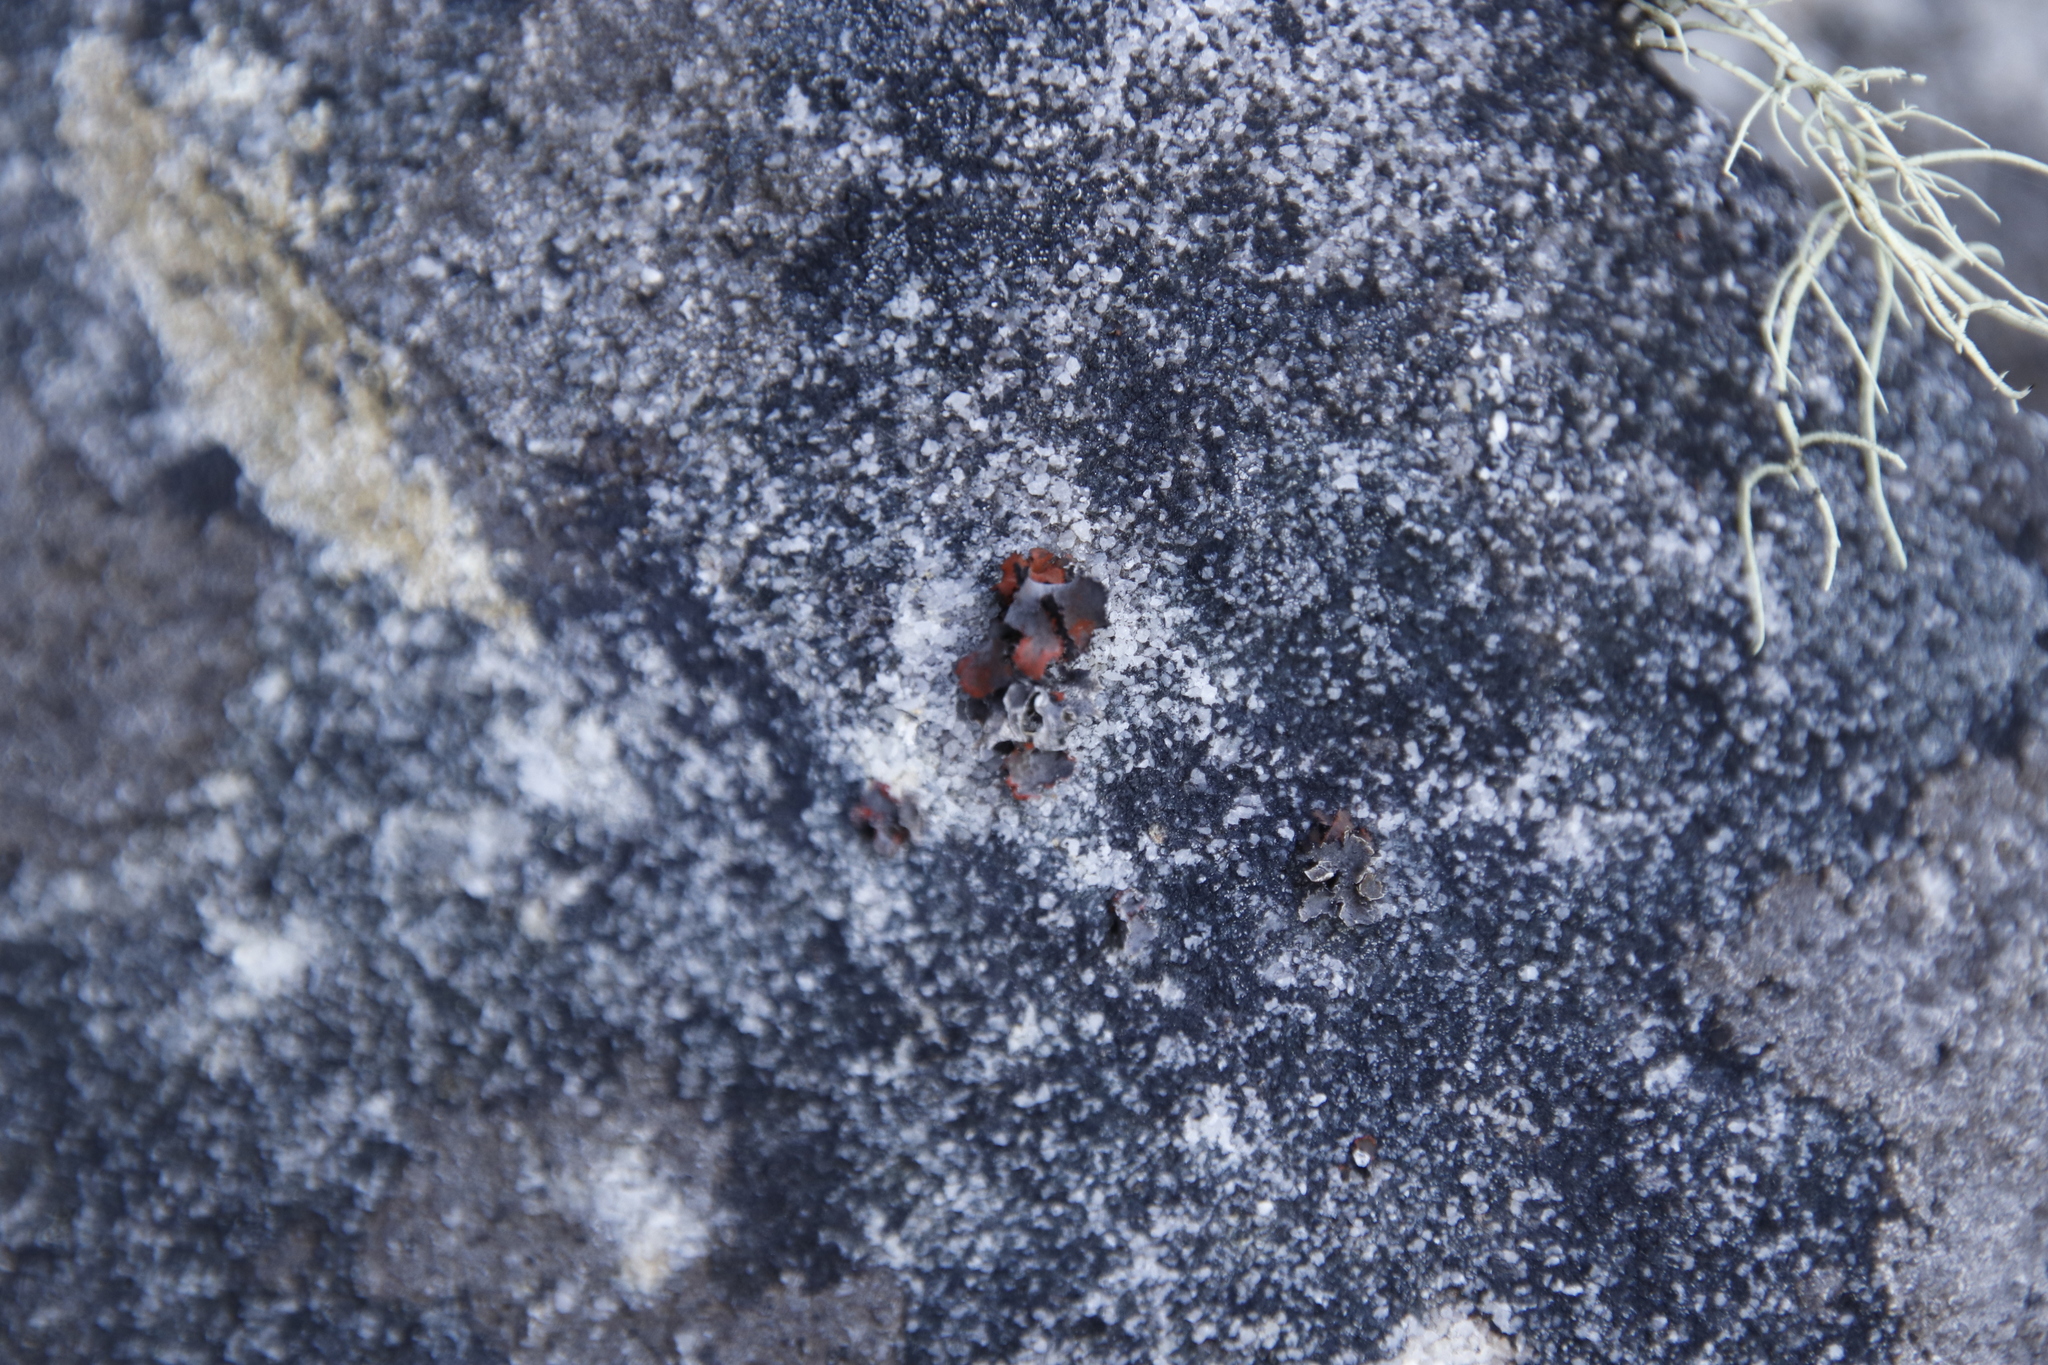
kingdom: Fungi
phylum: Ascomycota
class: Lecanoromycetes
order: Umbilicariales
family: Umbilicariaceae
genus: Lasallia
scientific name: Lasallia rubiginosa
